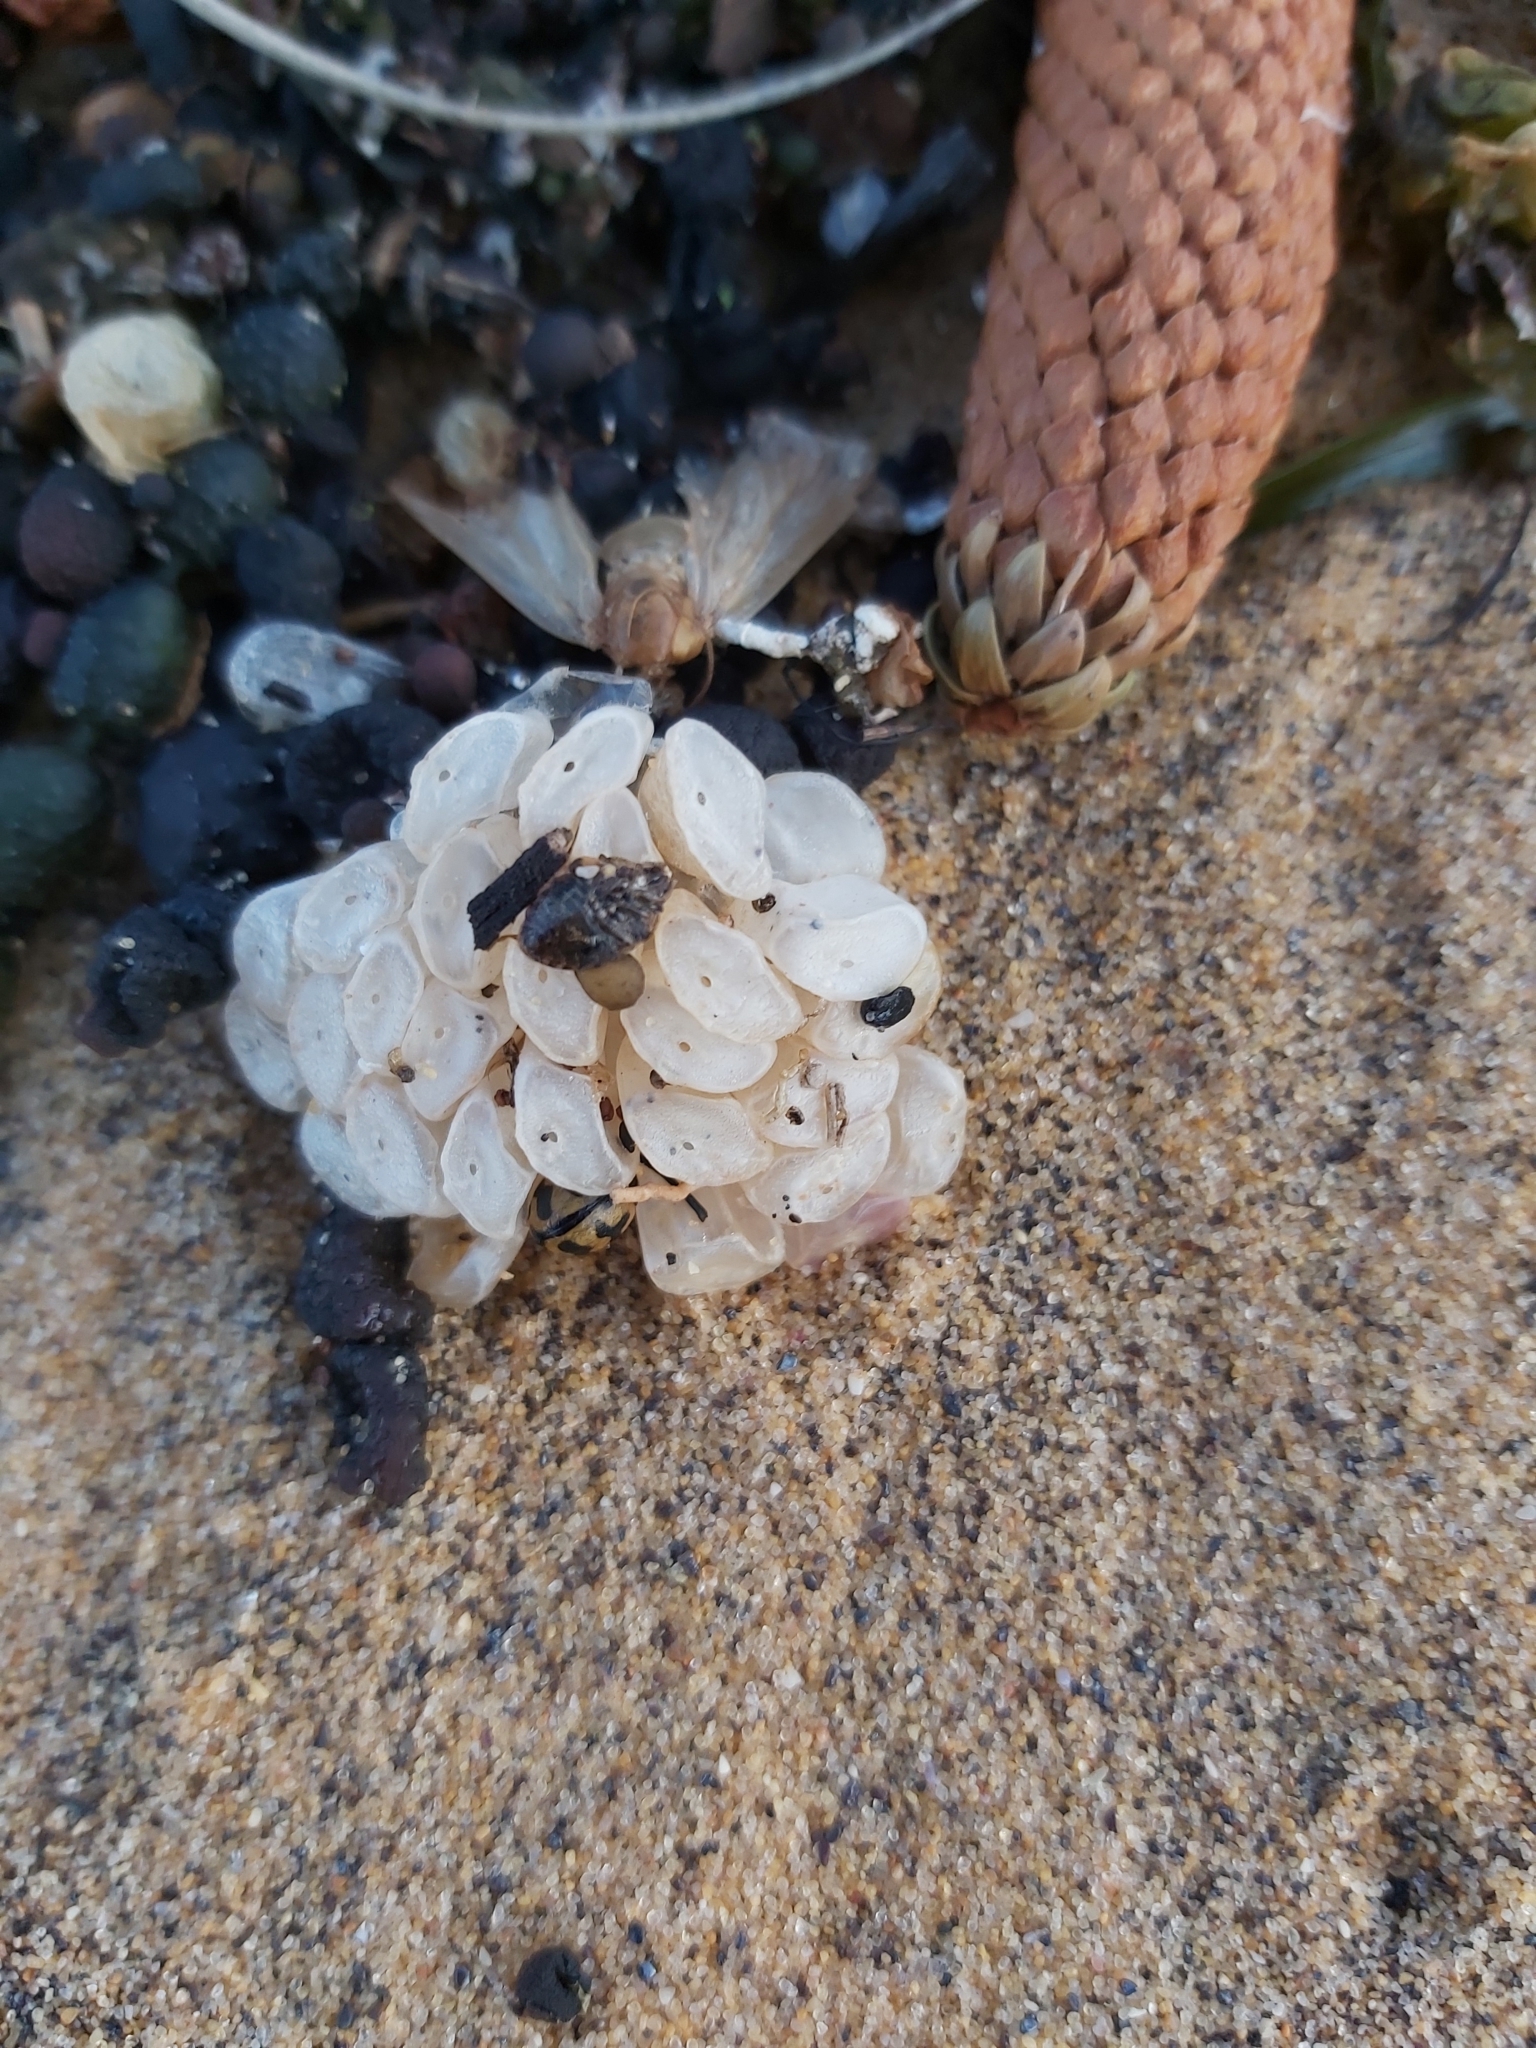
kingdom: Animalia
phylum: Mollusca
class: Gastropoda
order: Neogastropoda
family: Muricidae
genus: Dicathais
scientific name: Dicathais orbita
